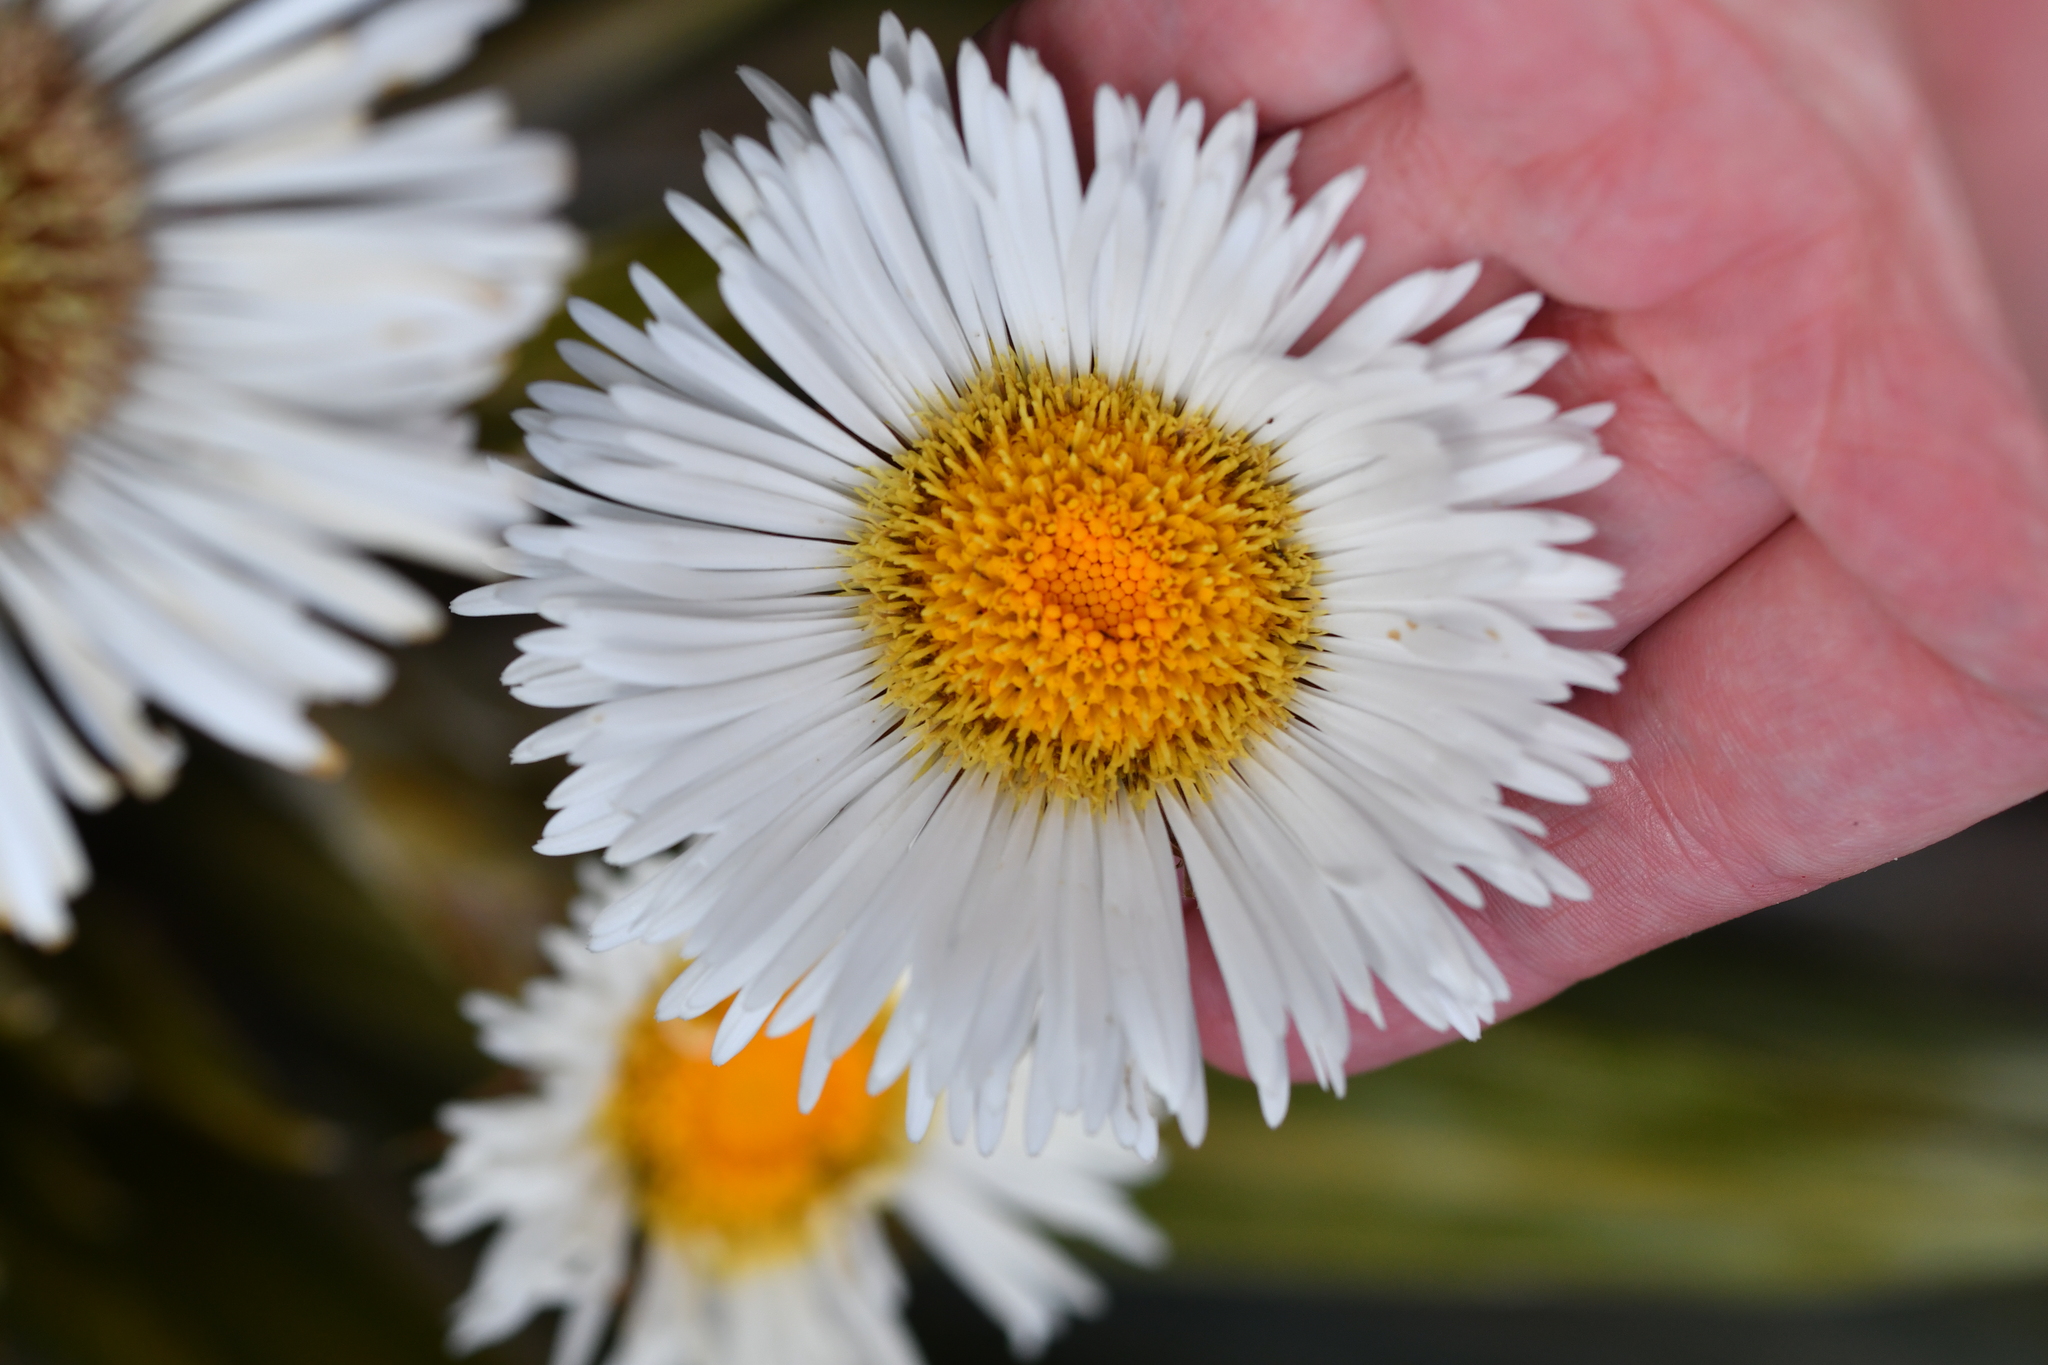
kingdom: Plantae
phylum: Tracheophyta
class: Magnoliopsida
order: Asterales
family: Asteraceae
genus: Celmisia
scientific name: Celmisia coriacea
